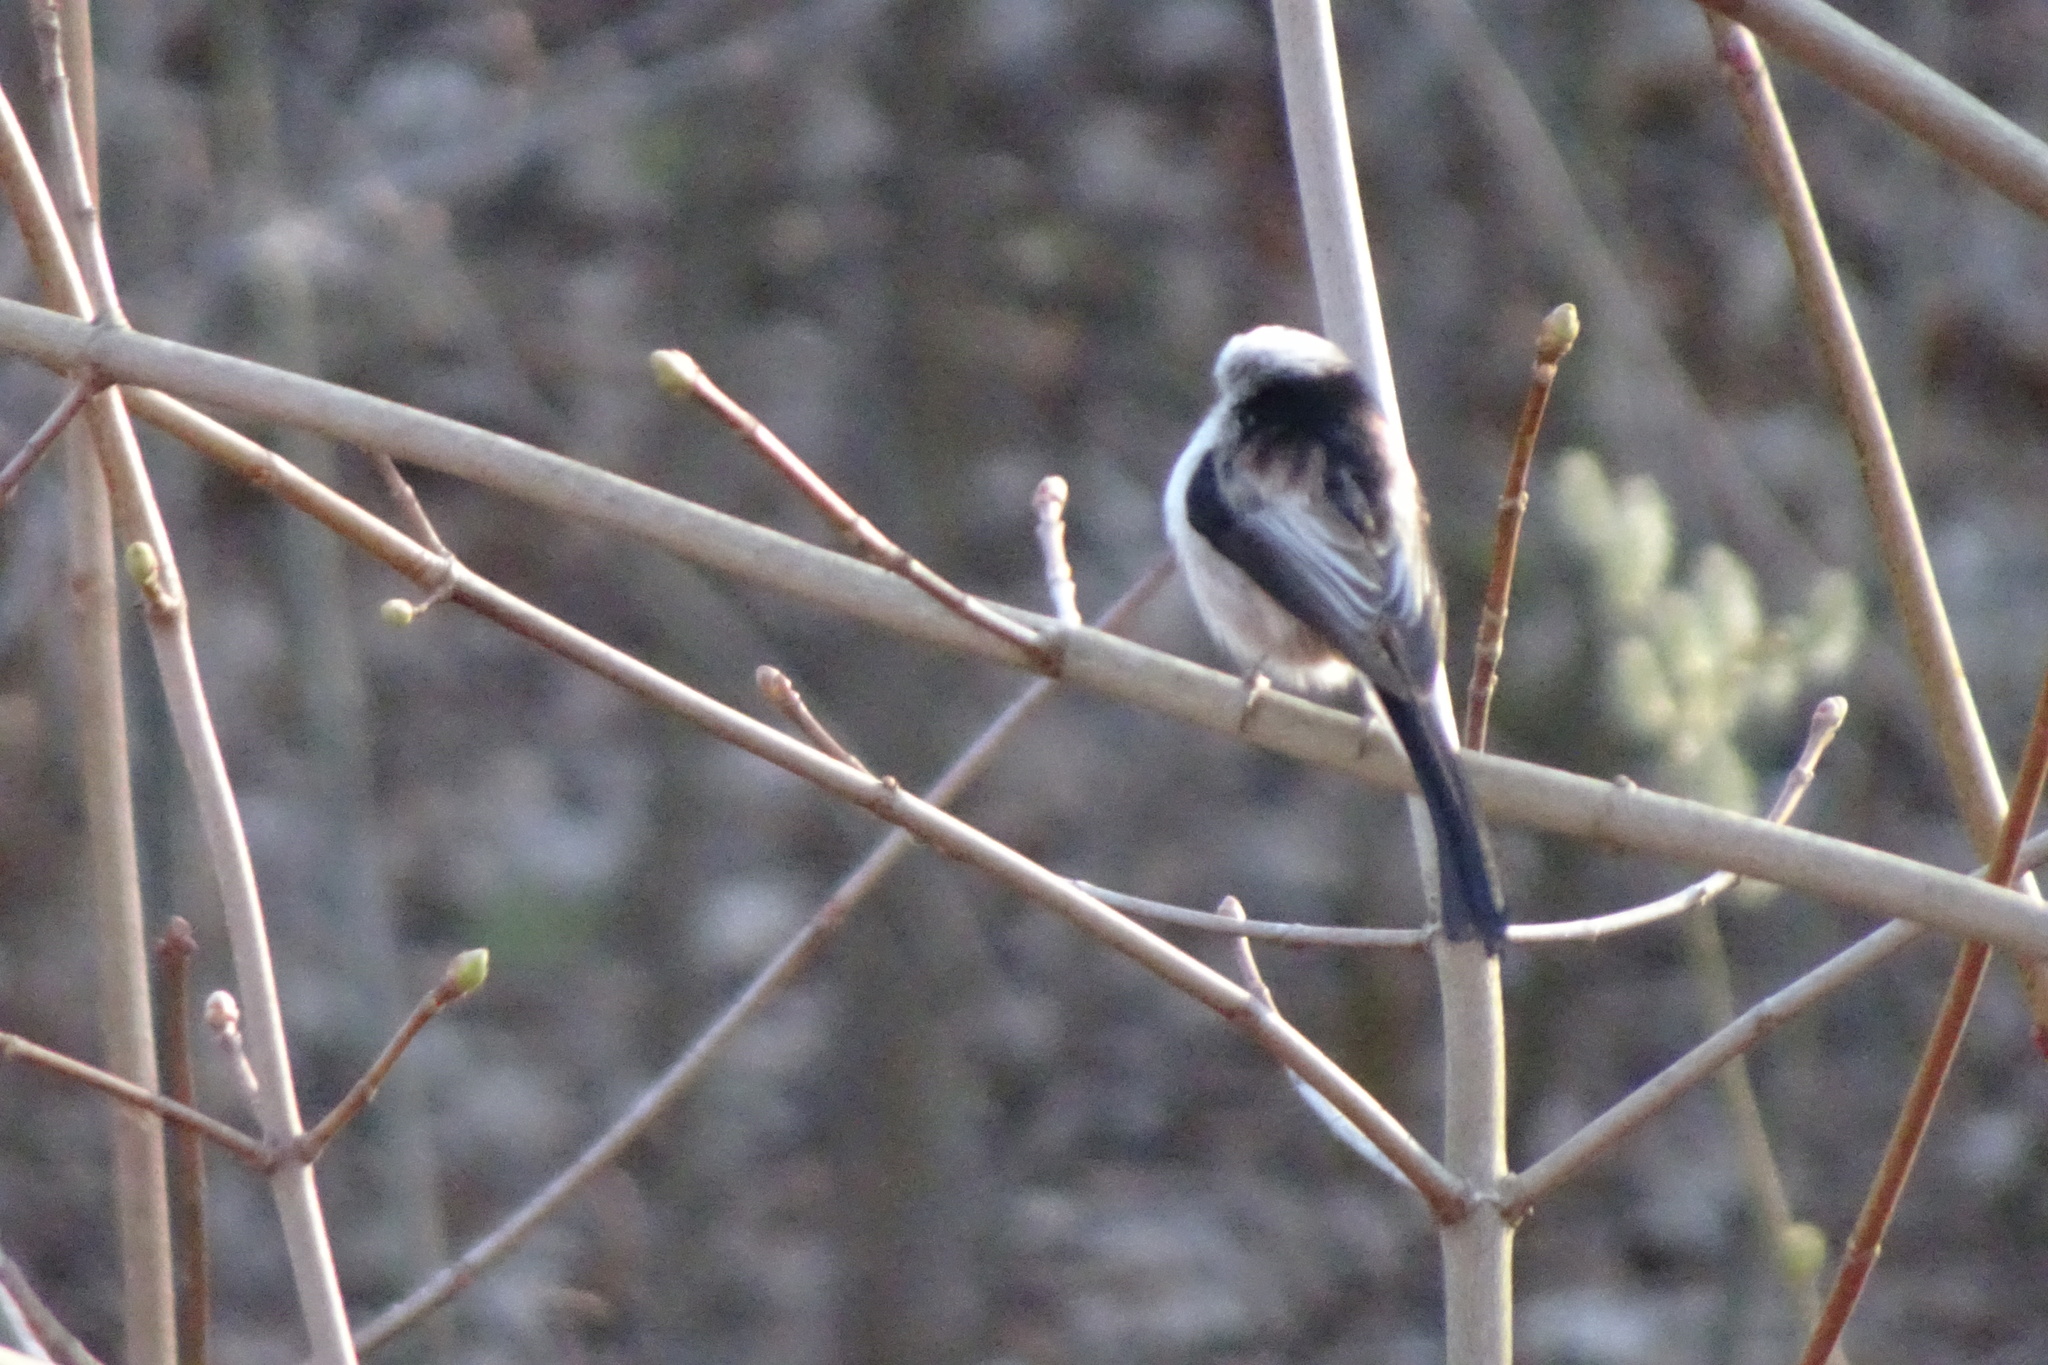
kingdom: Animalia
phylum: Chordata
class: Aves
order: Passeriformes
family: Aegithalidae
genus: Aegithalos
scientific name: Aegithalos caudatus
